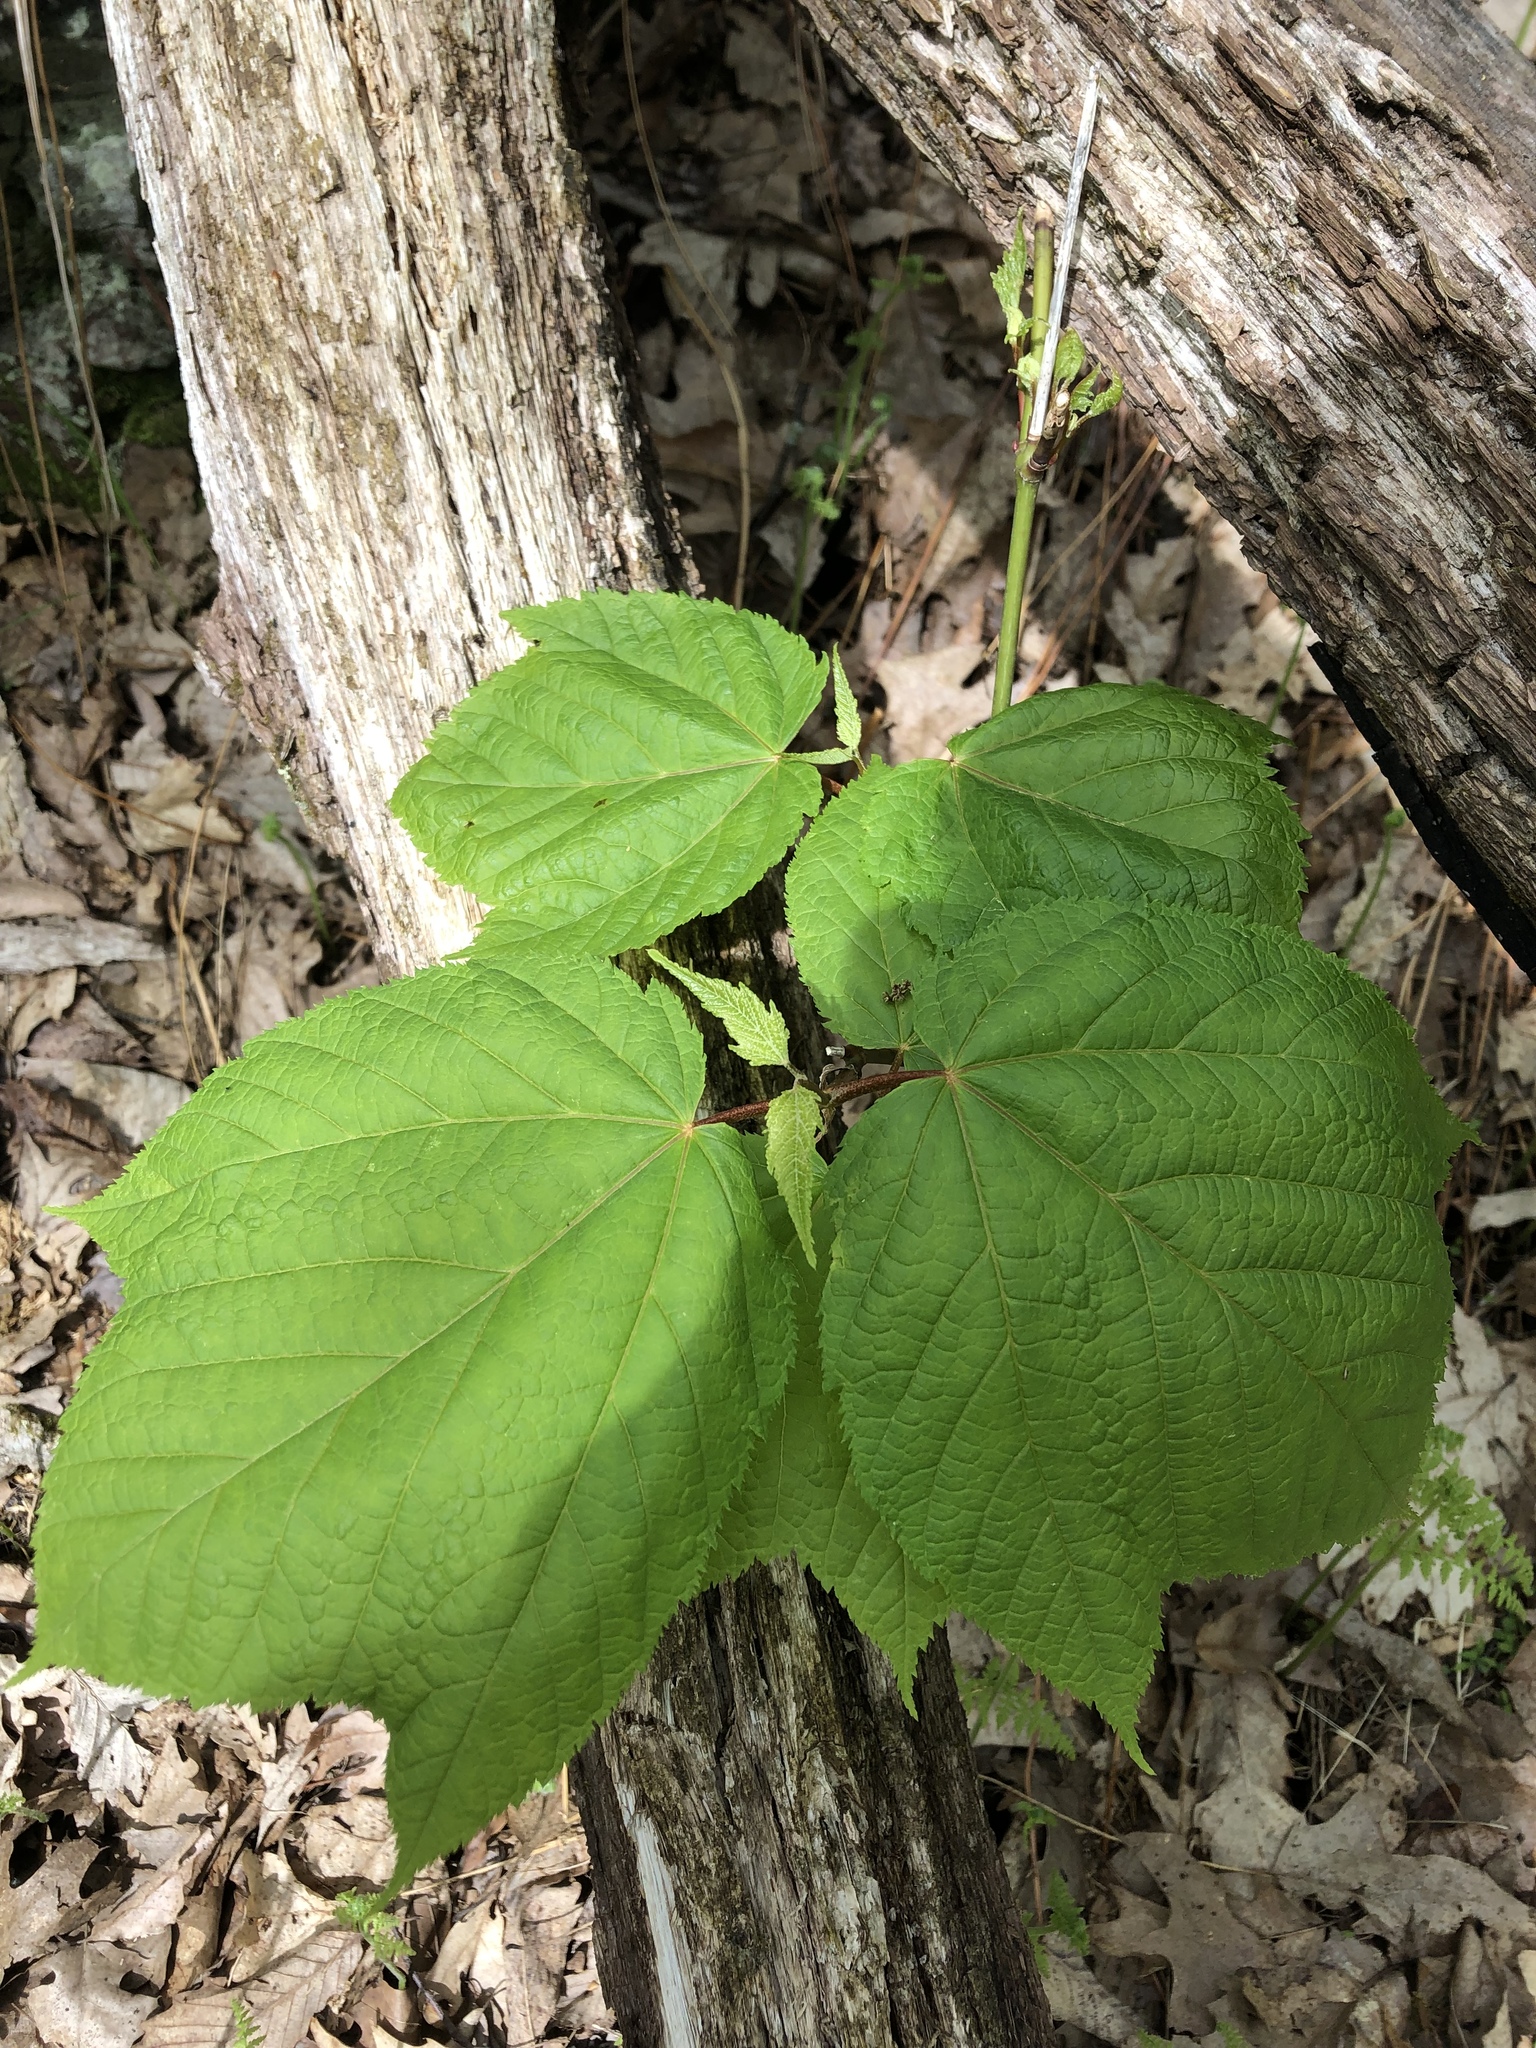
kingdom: Plantae
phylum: Tracheophyta
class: Magnoliopsida
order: Sapindales
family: Sapindaceae
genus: Acer
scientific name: Acer pensylvanicum
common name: Moosewood
